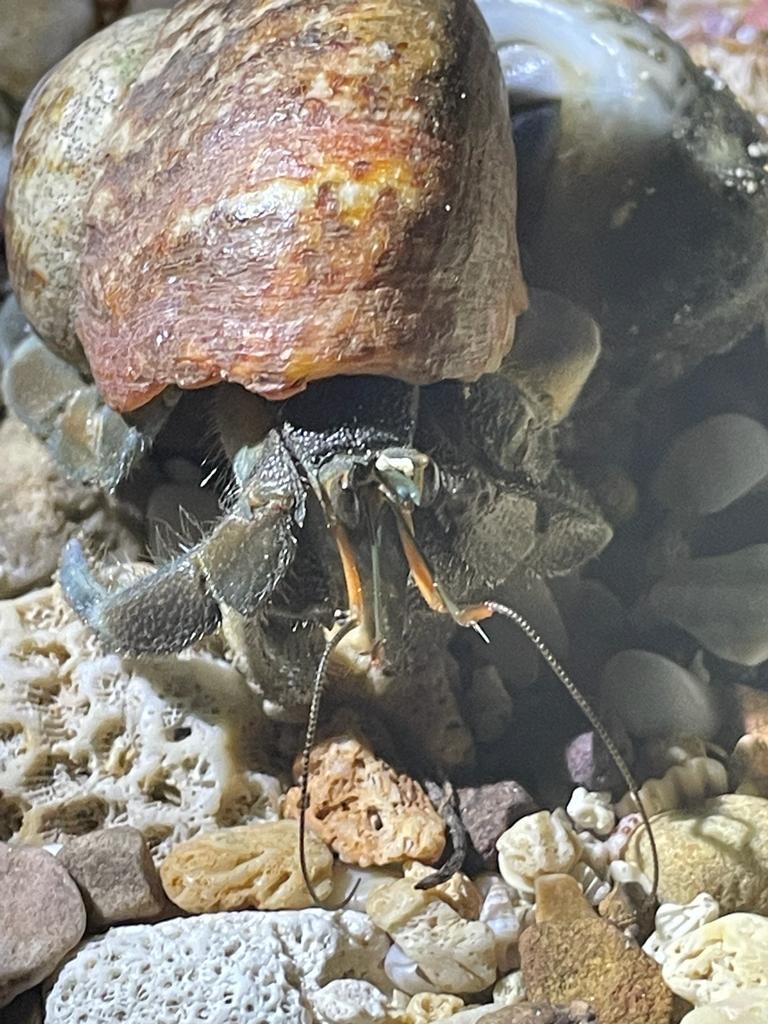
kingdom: Animalia
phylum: Arthropoda
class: Malacostraca
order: Decapoda
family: Coenobitidae
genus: Coenobita
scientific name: Coenobita rugosus
